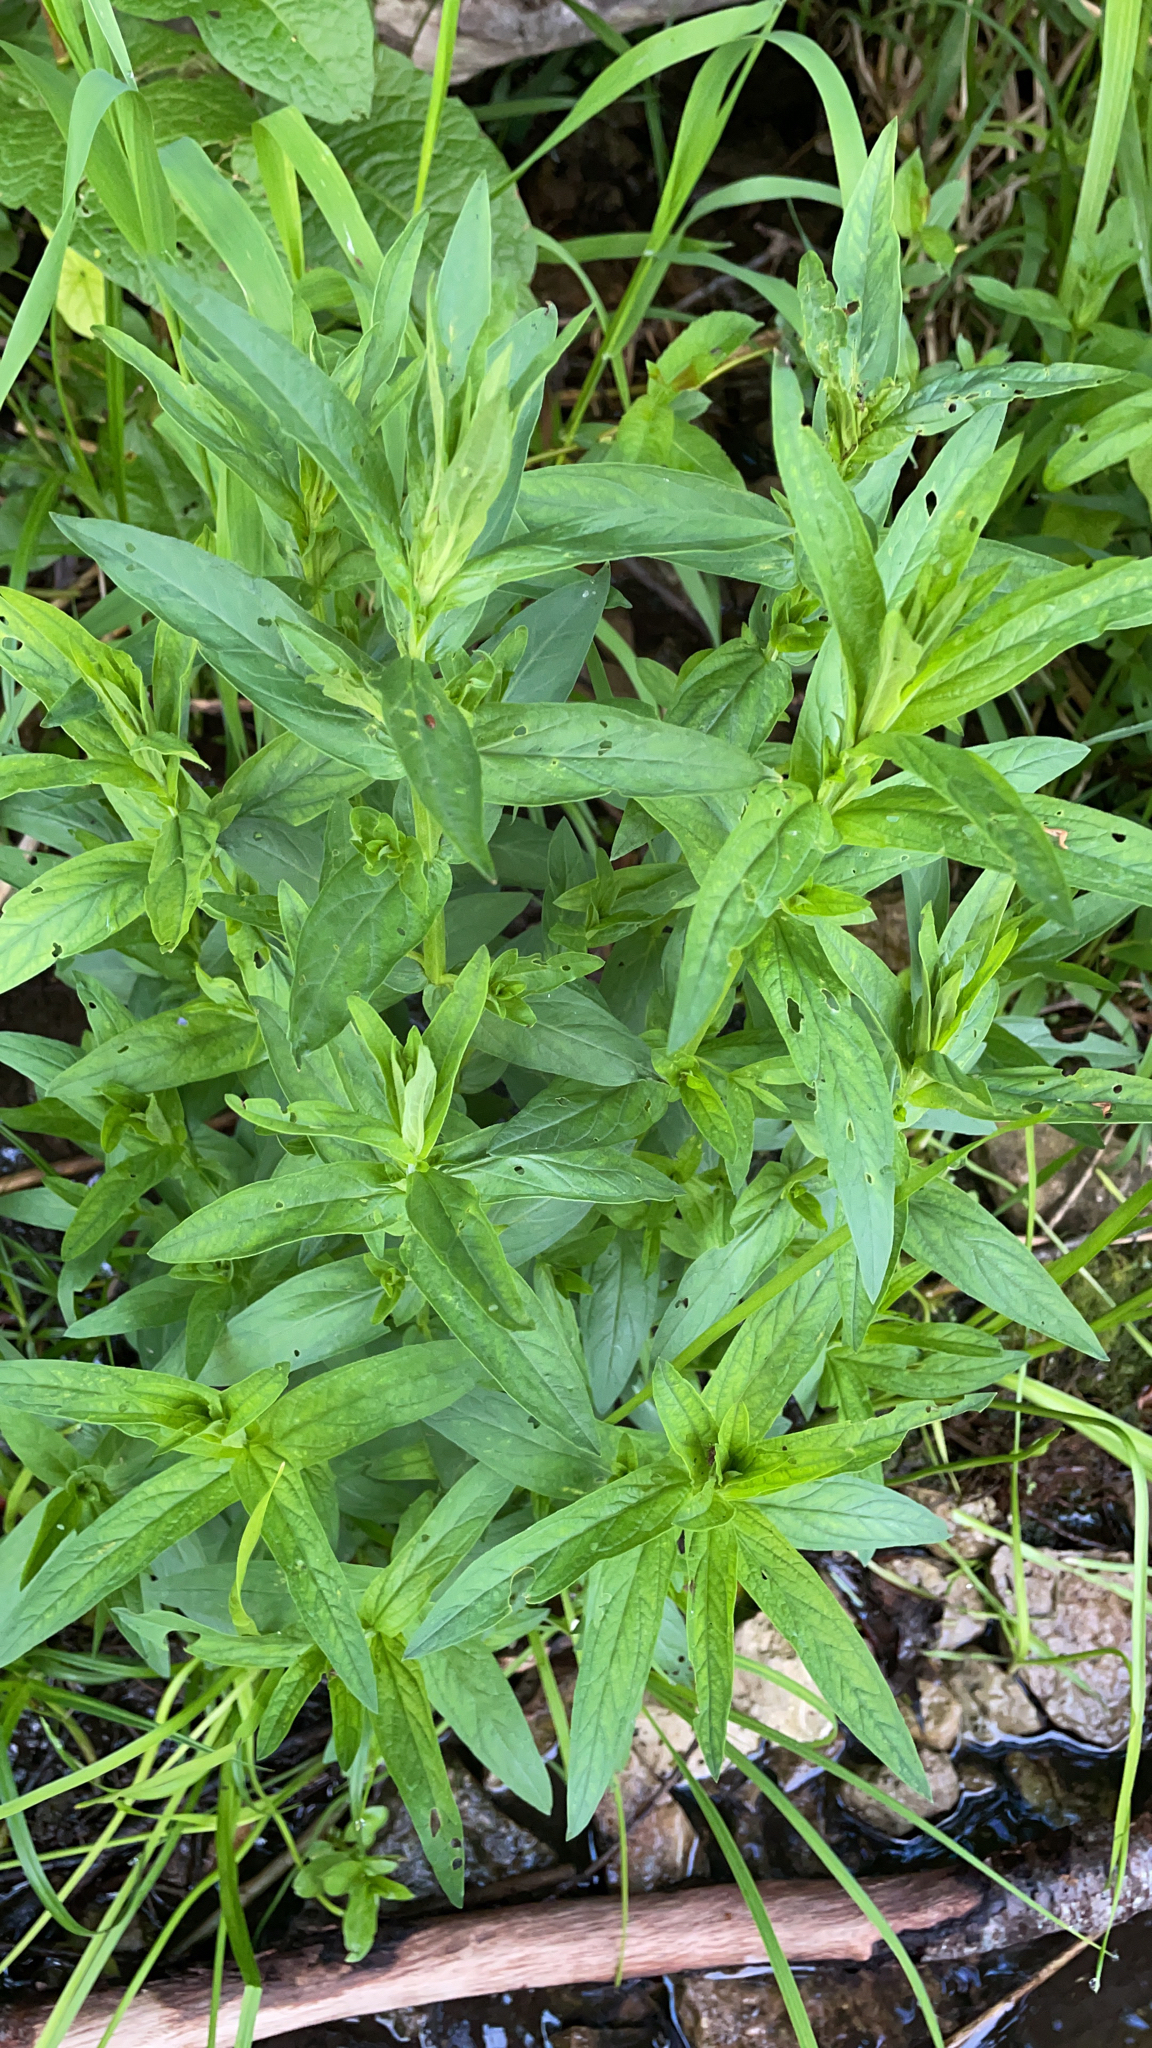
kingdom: Plantae
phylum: Tracheophyta
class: Magnoliopsida
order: Myrtales
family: Lythraceae
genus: Lythrum
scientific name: Lythrum salicaria
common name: Purple loosestrife
